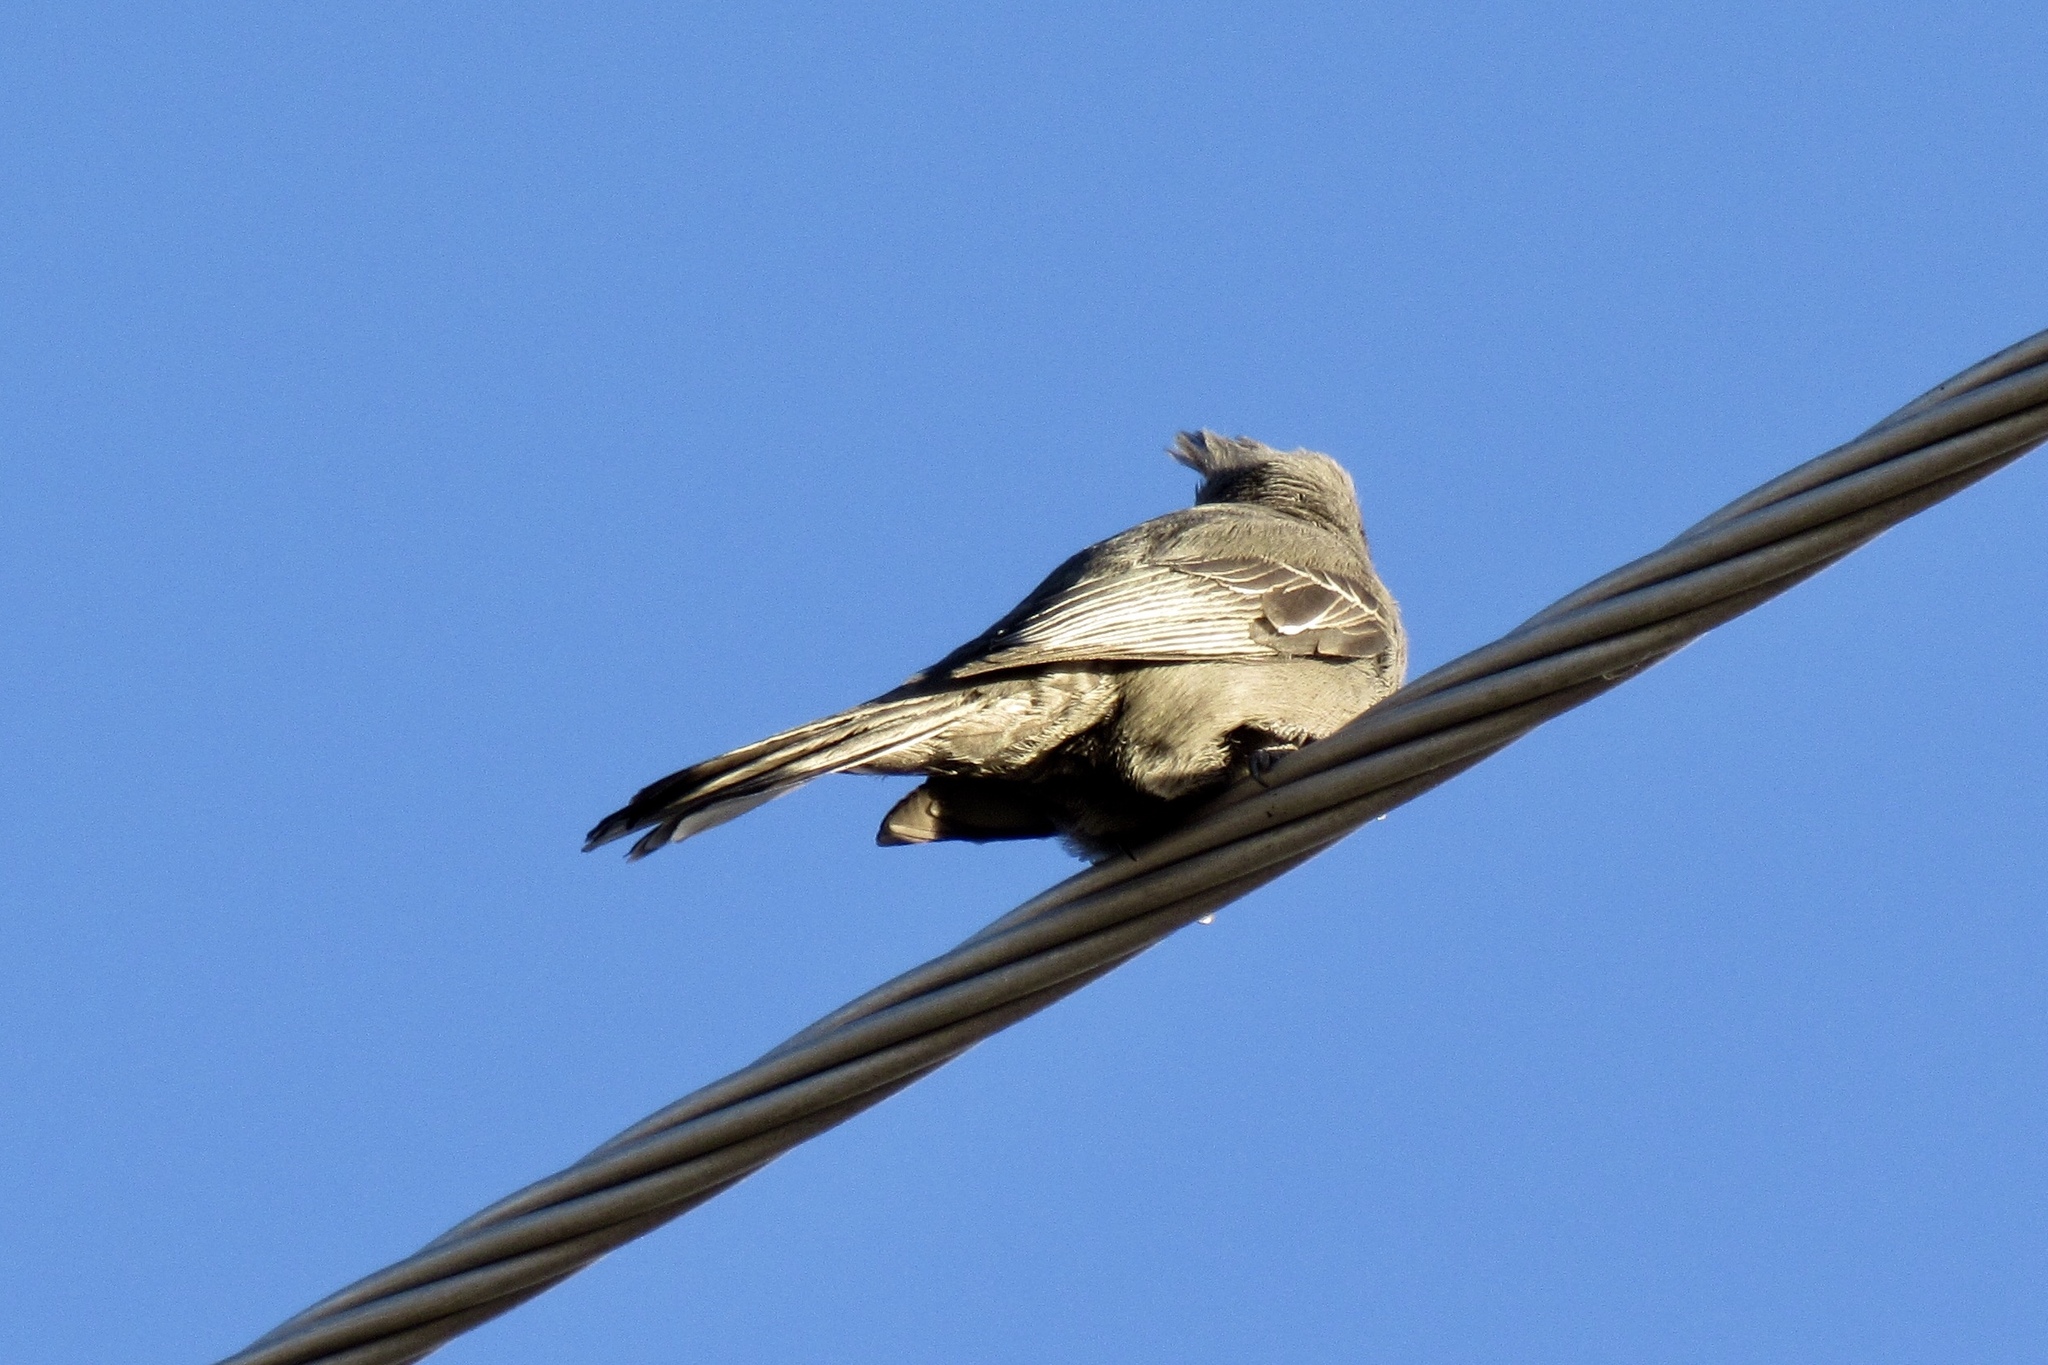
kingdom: Animalia
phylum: Chordata
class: Aves
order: Passeriformes
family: Ptilogonatidae
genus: Phainopepla
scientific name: Phainopepla nitens
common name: Phainopepla
